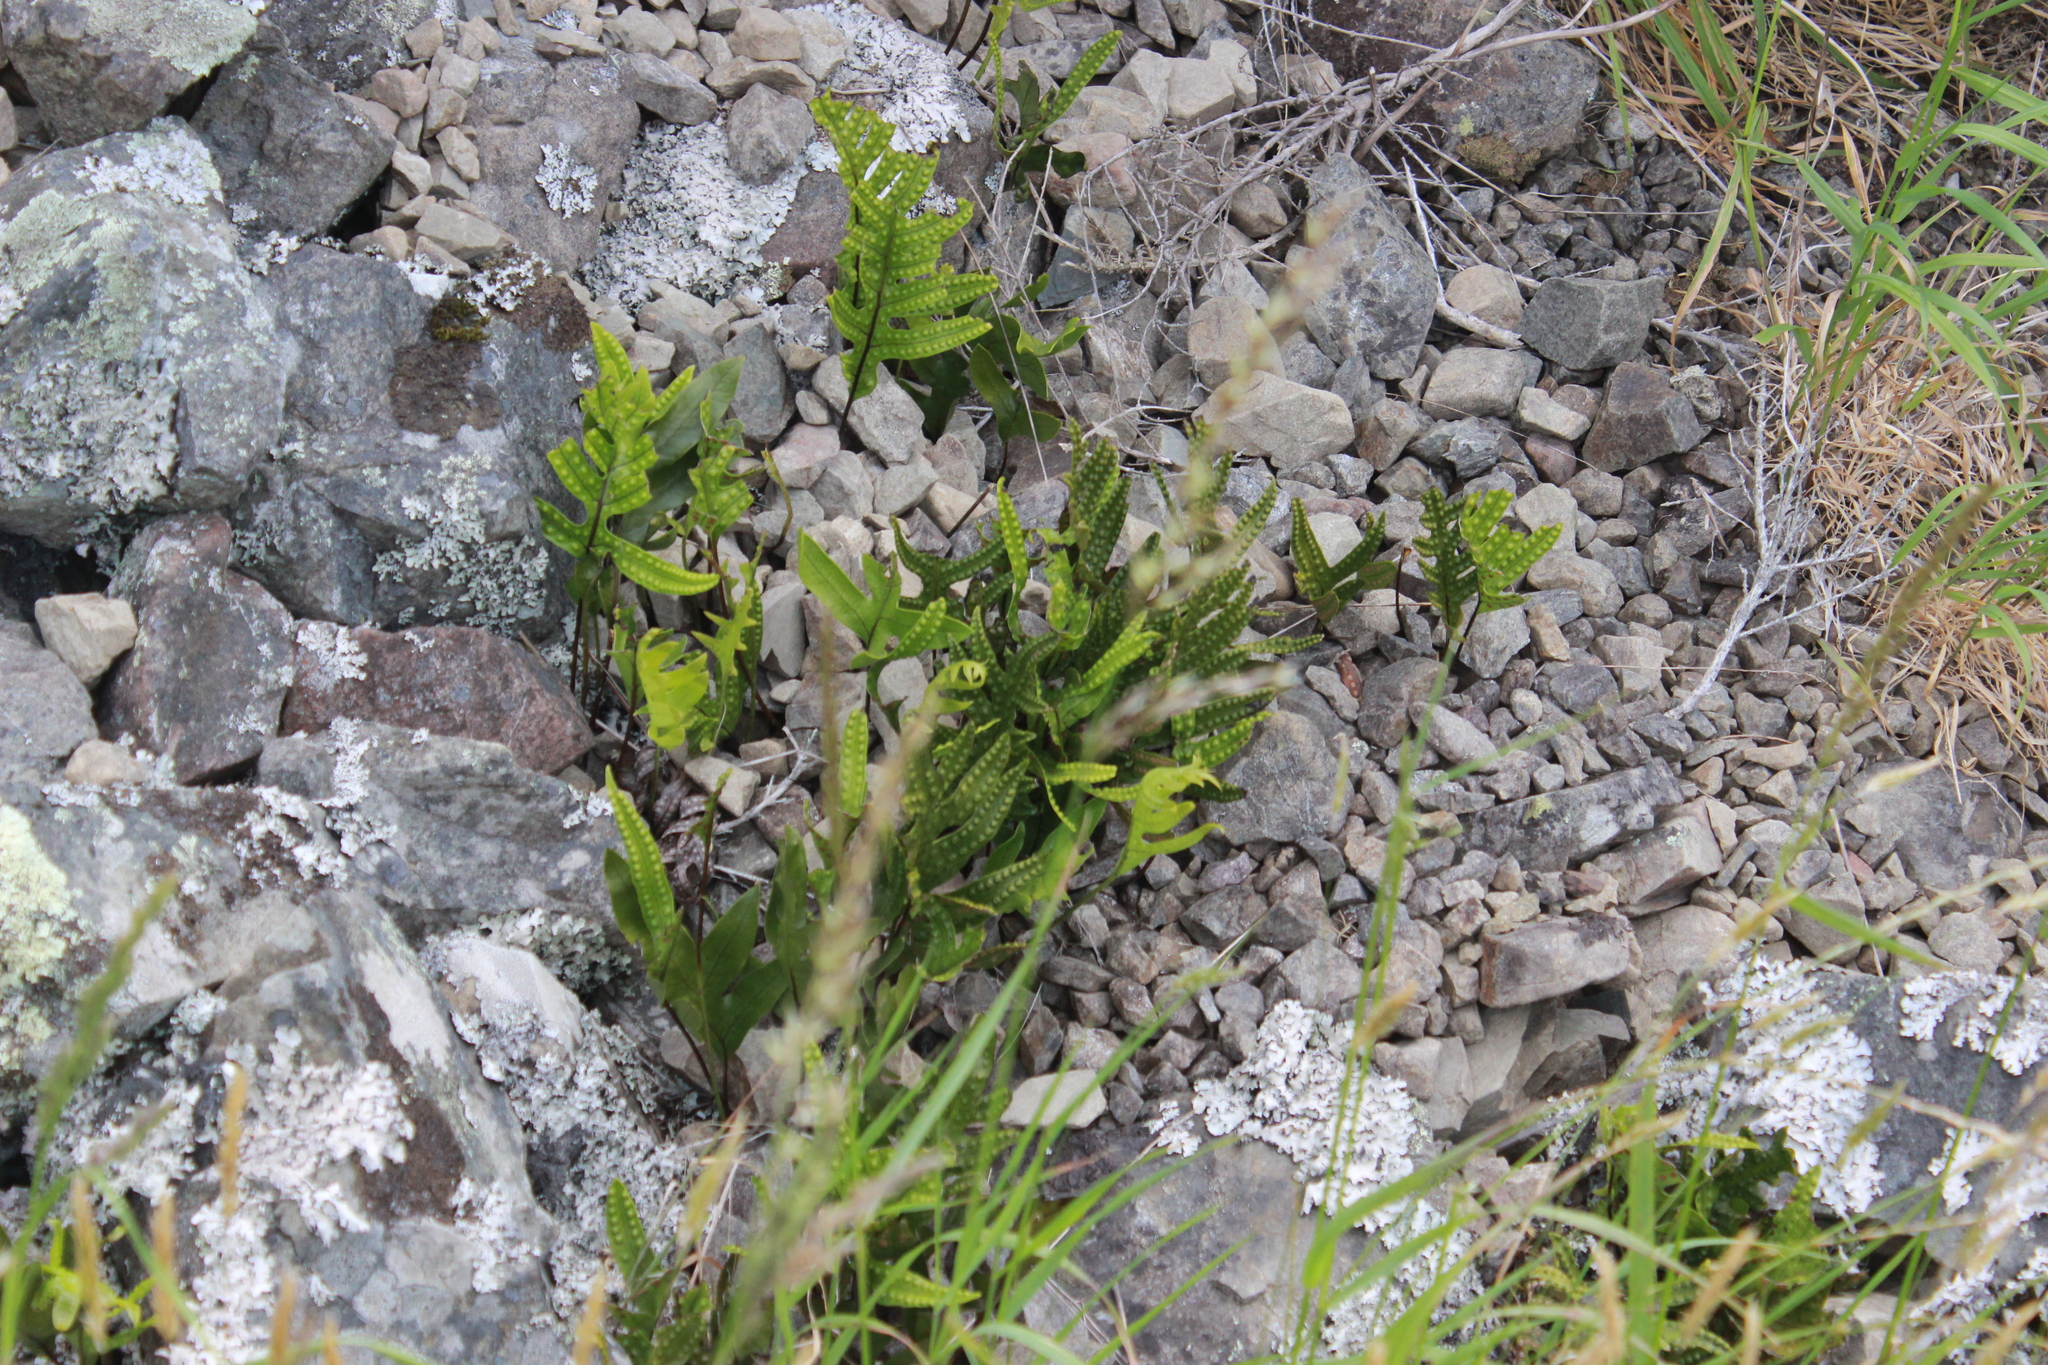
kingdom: Plantae
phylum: Tracheophyta
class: Polypodiopsida
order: Polypodiales
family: Polypodiaceae
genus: Lecanopteris
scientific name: Lecanopteris pustulata
